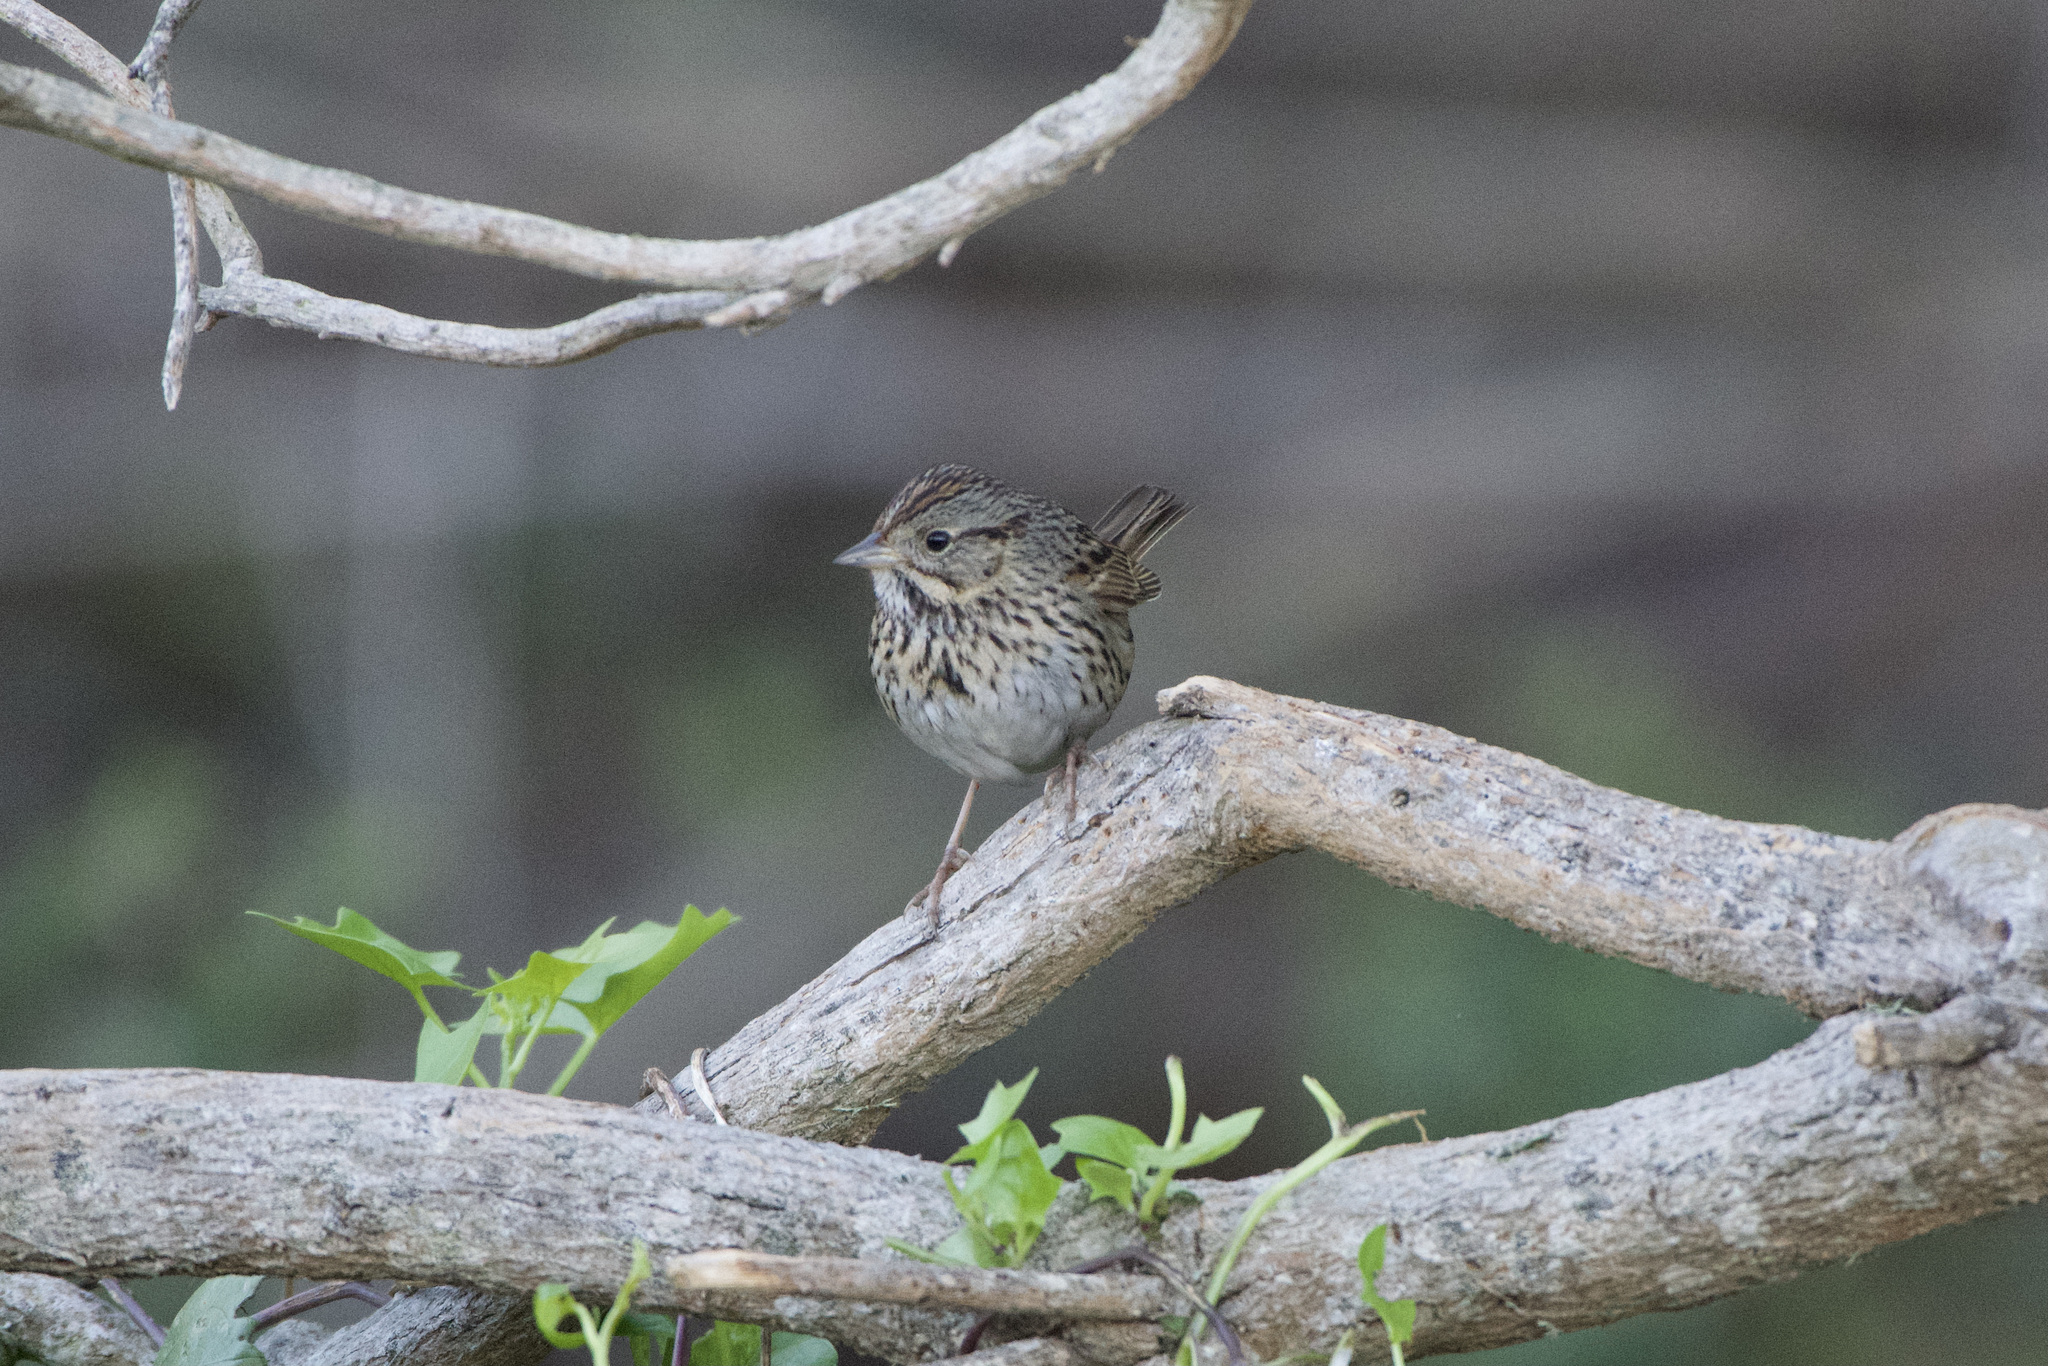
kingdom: Animalia
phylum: Chordata
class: Aves
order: Passeriformes
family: Passerellidae
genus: Melospiza
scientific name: Melospiza lincolnii
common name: Lincoln's sparrow
